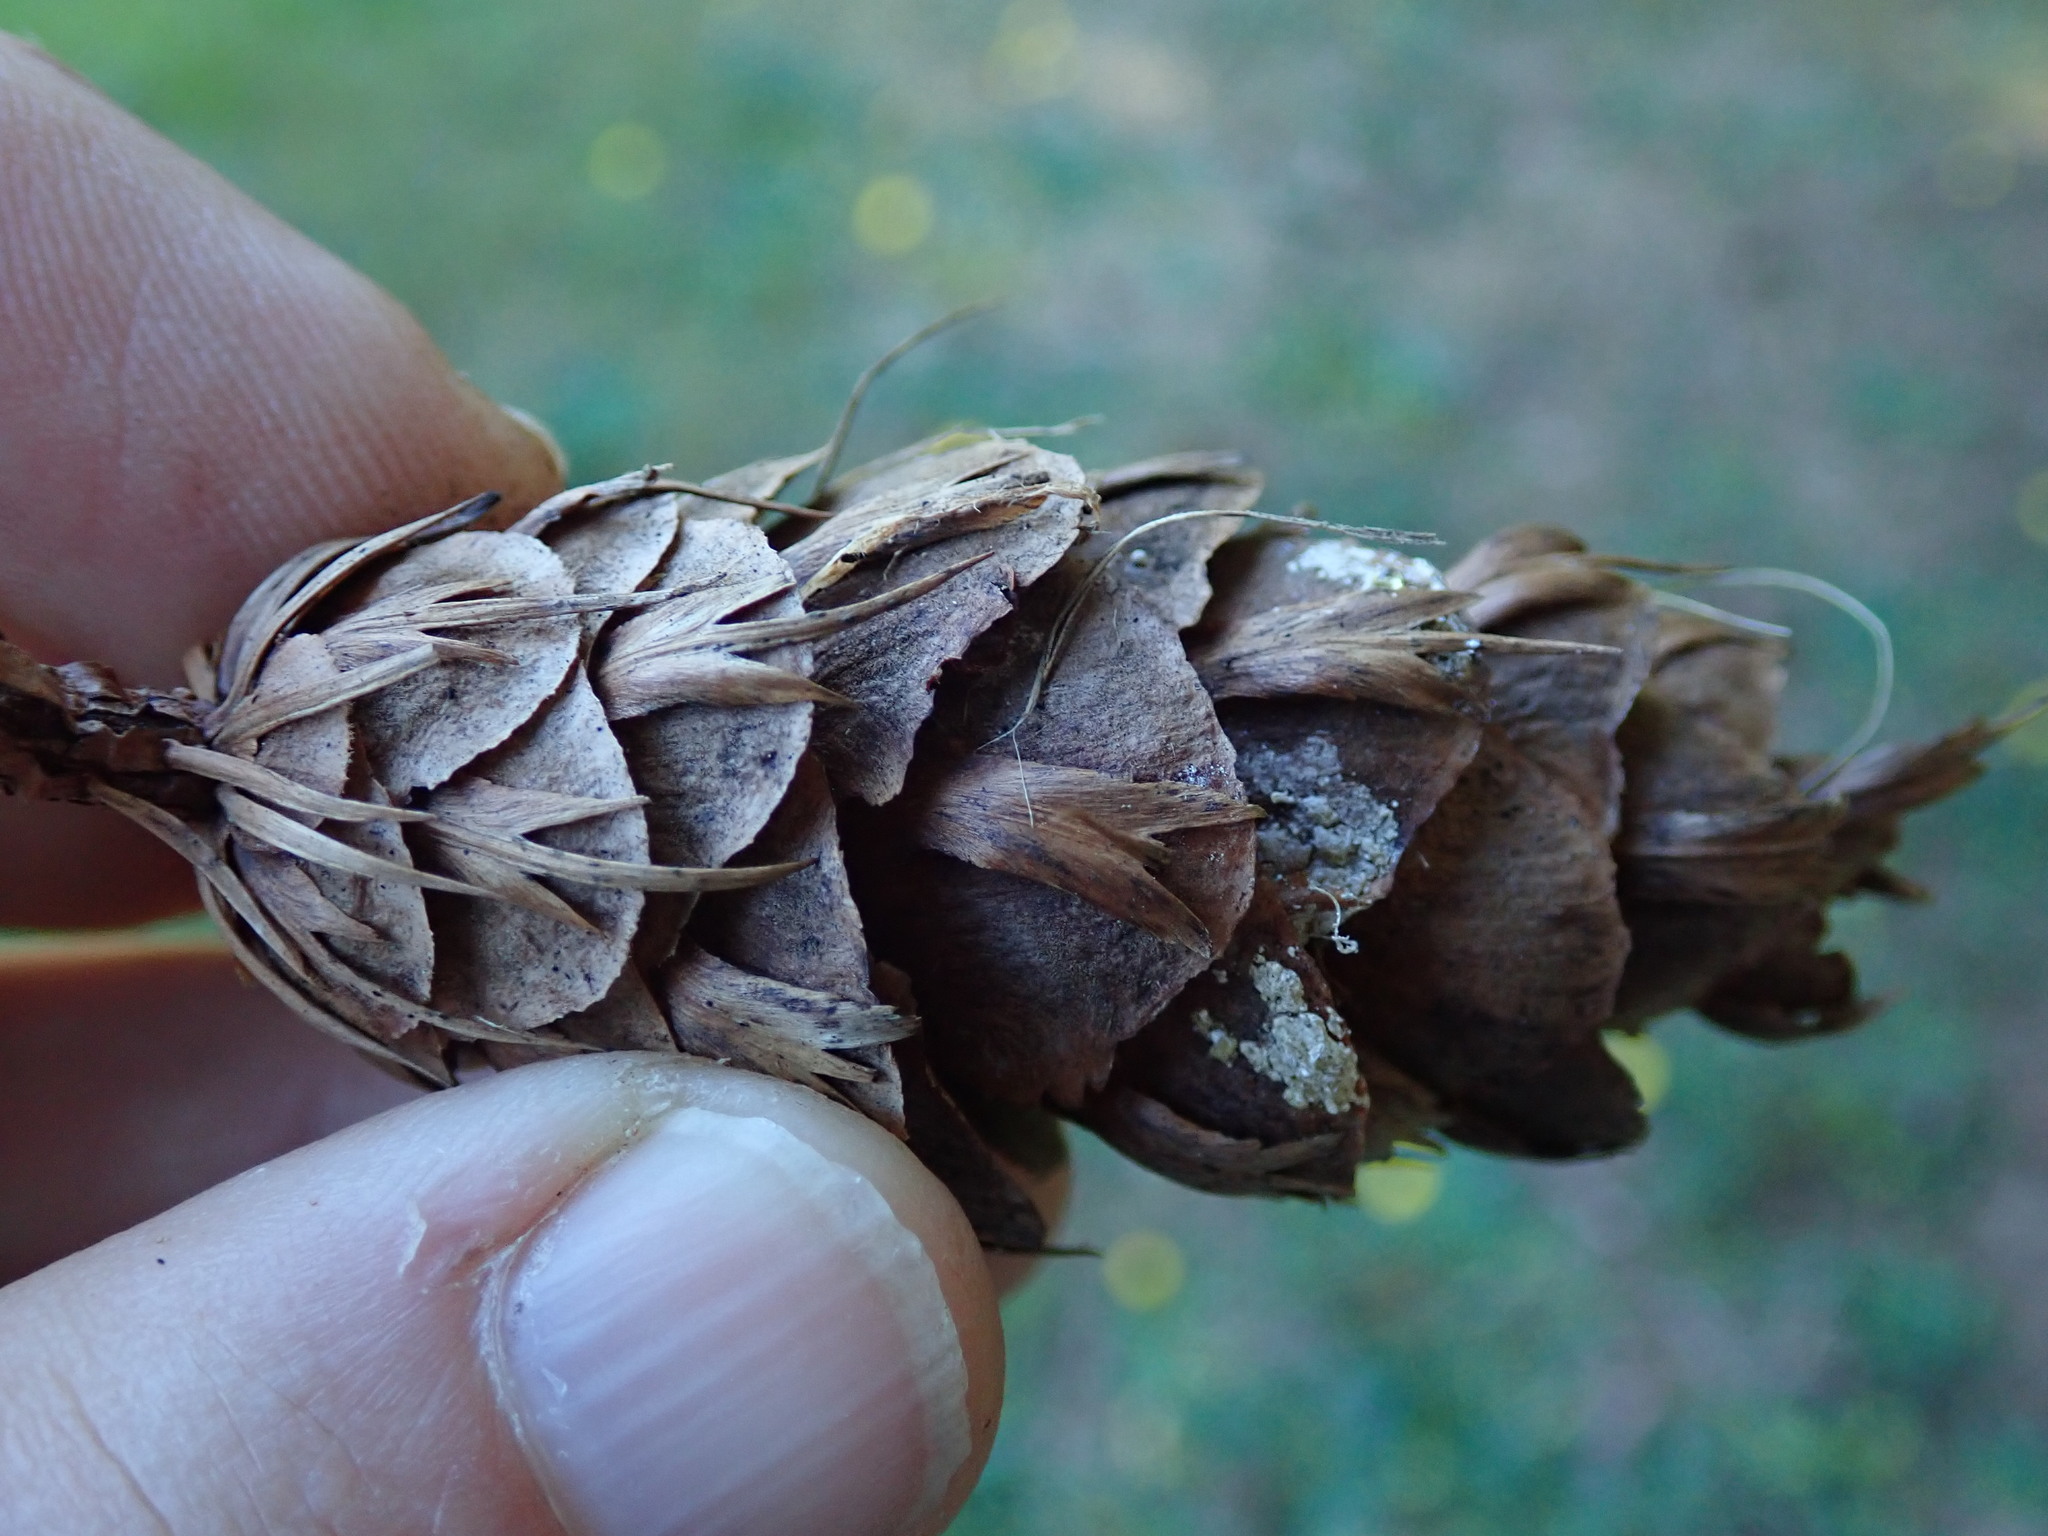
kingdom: Plantae
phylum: Tracheophyta
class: Pinopsida
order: Pinales
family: Pinaceae
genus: Pseudotsuga
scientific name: Pseudotsuga menziesii
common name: Douglas fir
